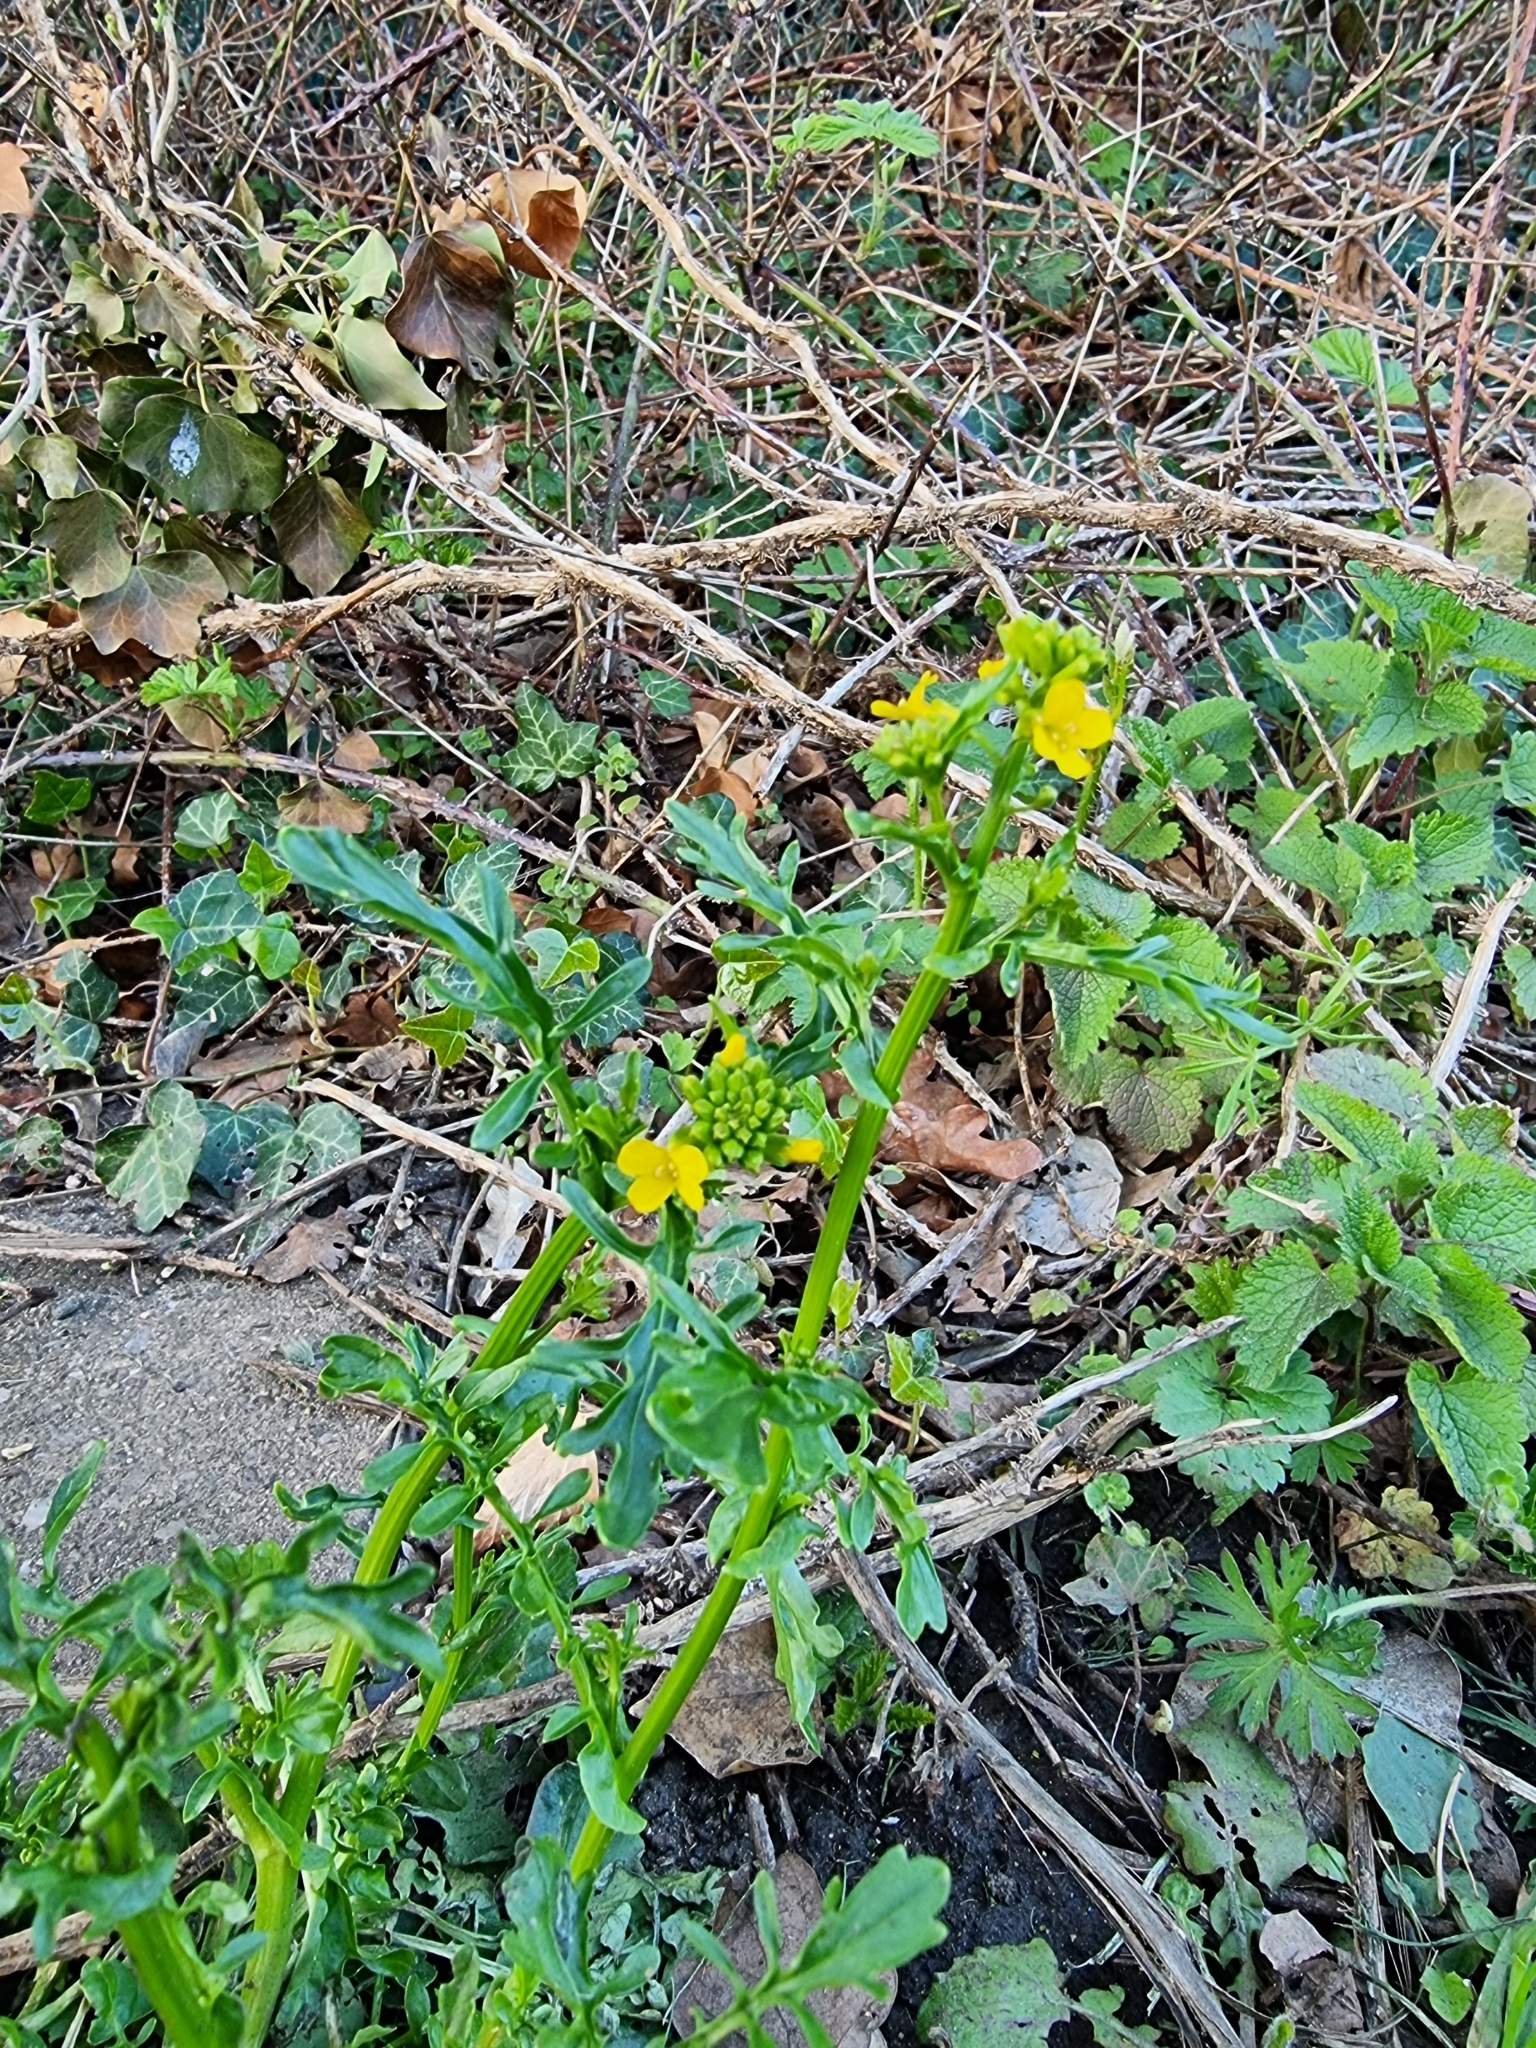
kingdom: Plantae
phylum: Tracheophyta
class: Magnoliopsida
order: Brassicales
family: Brassicaceae
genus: Barbarea
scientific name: Barbarea verna
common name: American cress
